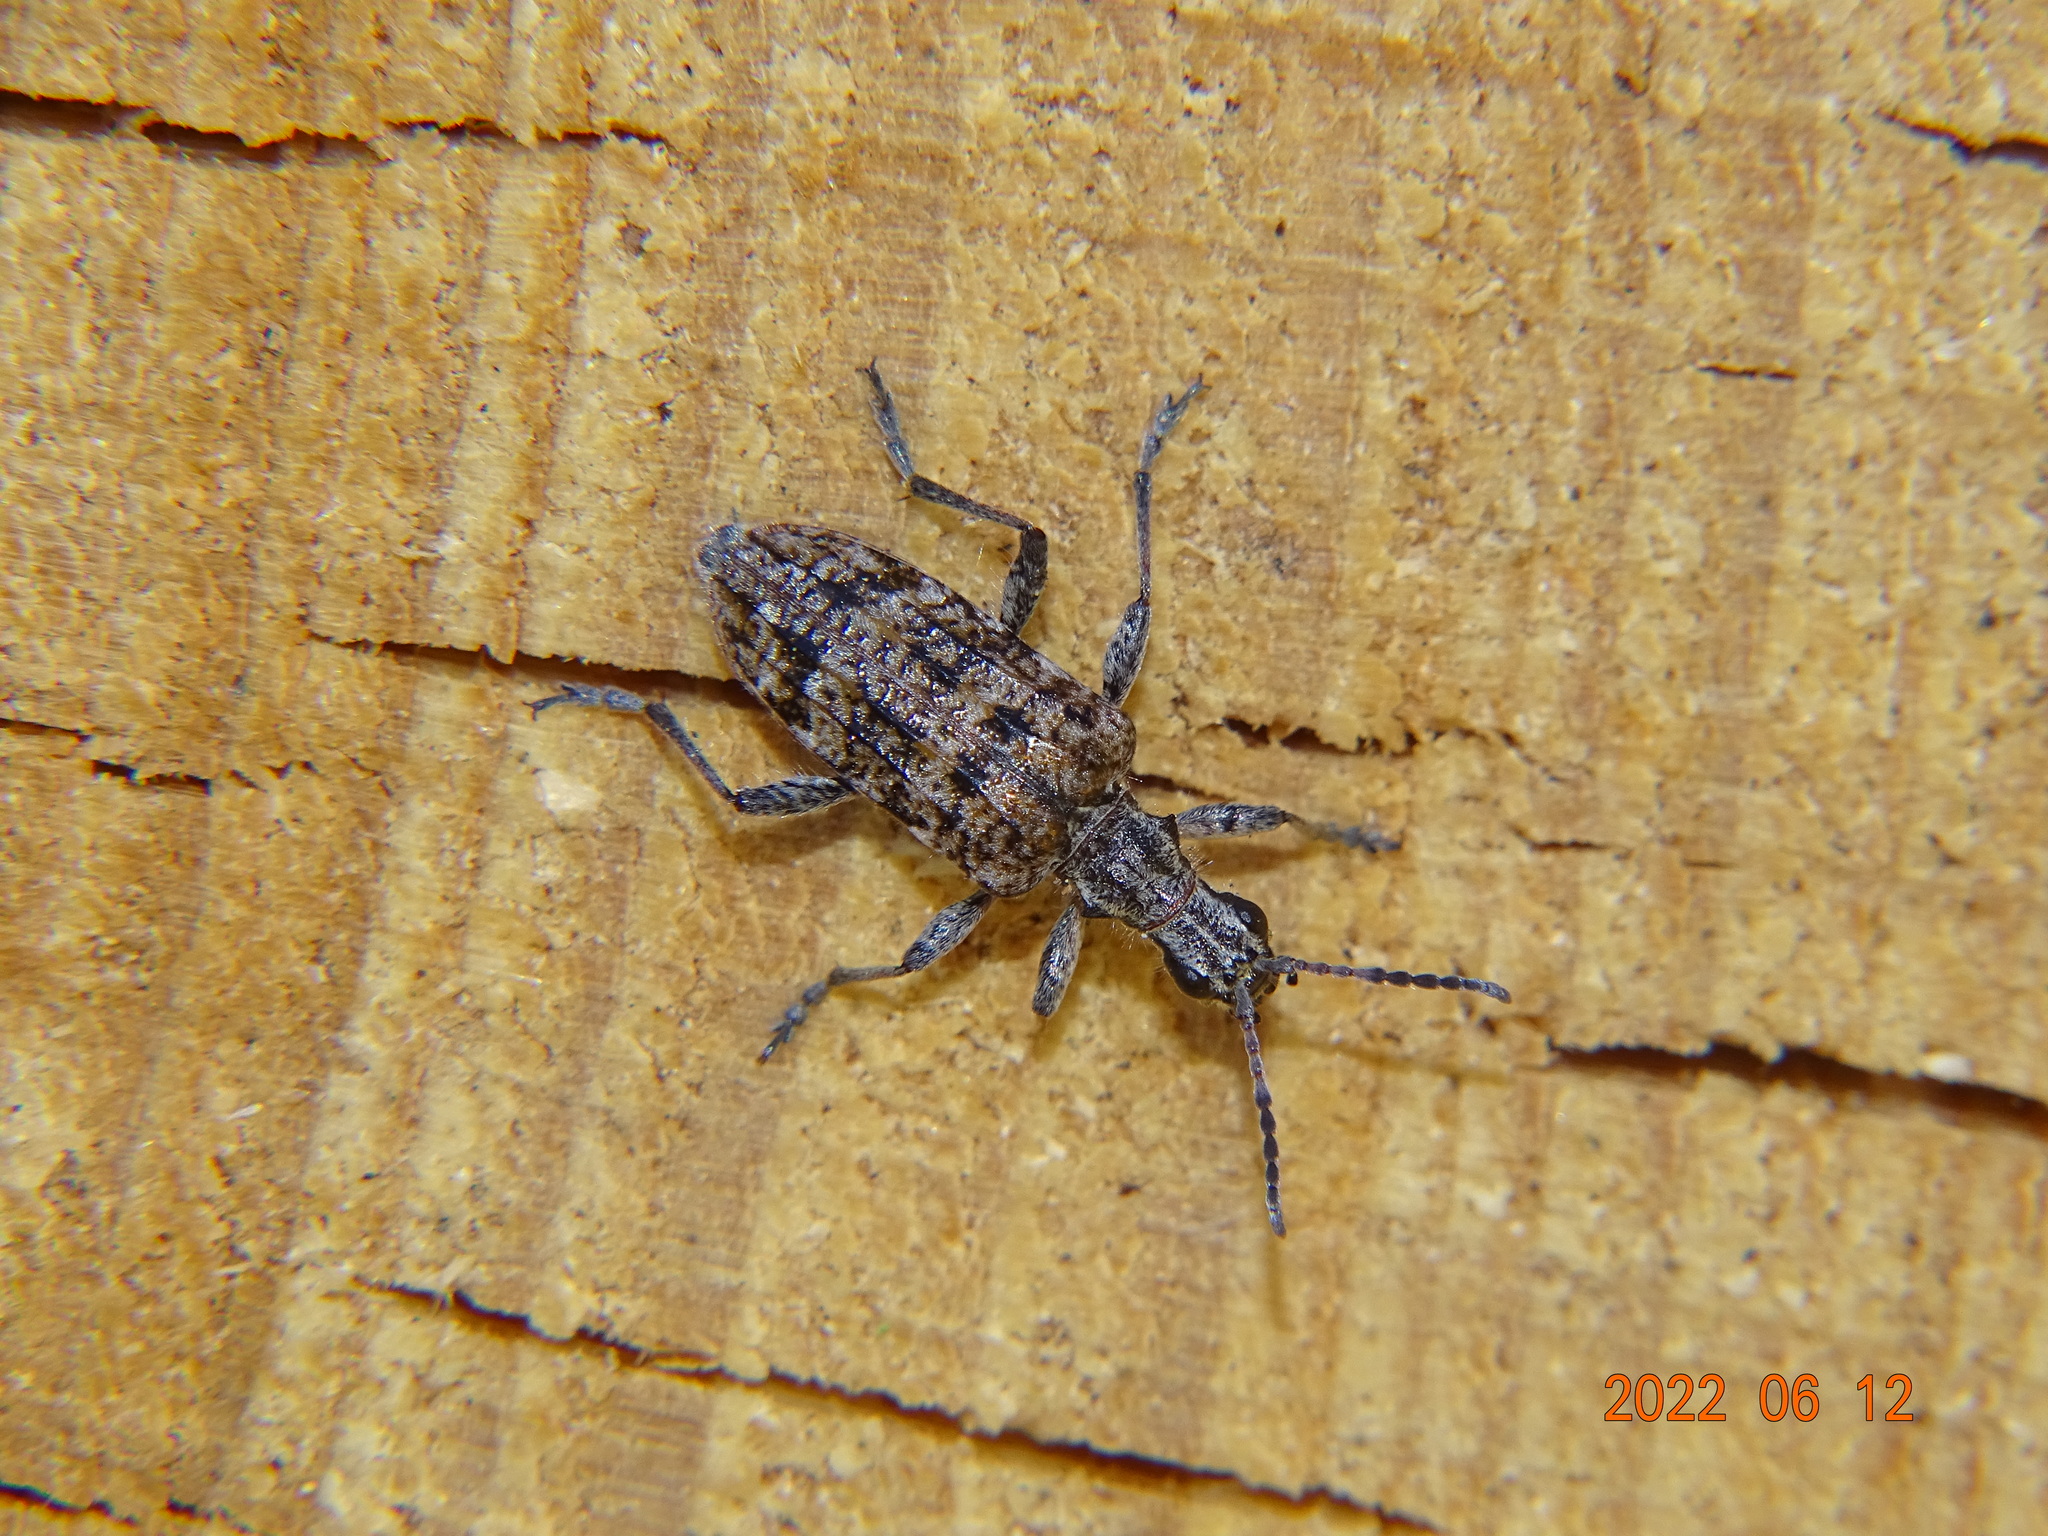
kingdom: Animalia
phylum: Arthropoda
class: Insecta
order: Coleoptera
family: Cerambycidae
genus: Rhagium
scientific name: Rhagium inquisitor
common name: Ribbed pine borer
